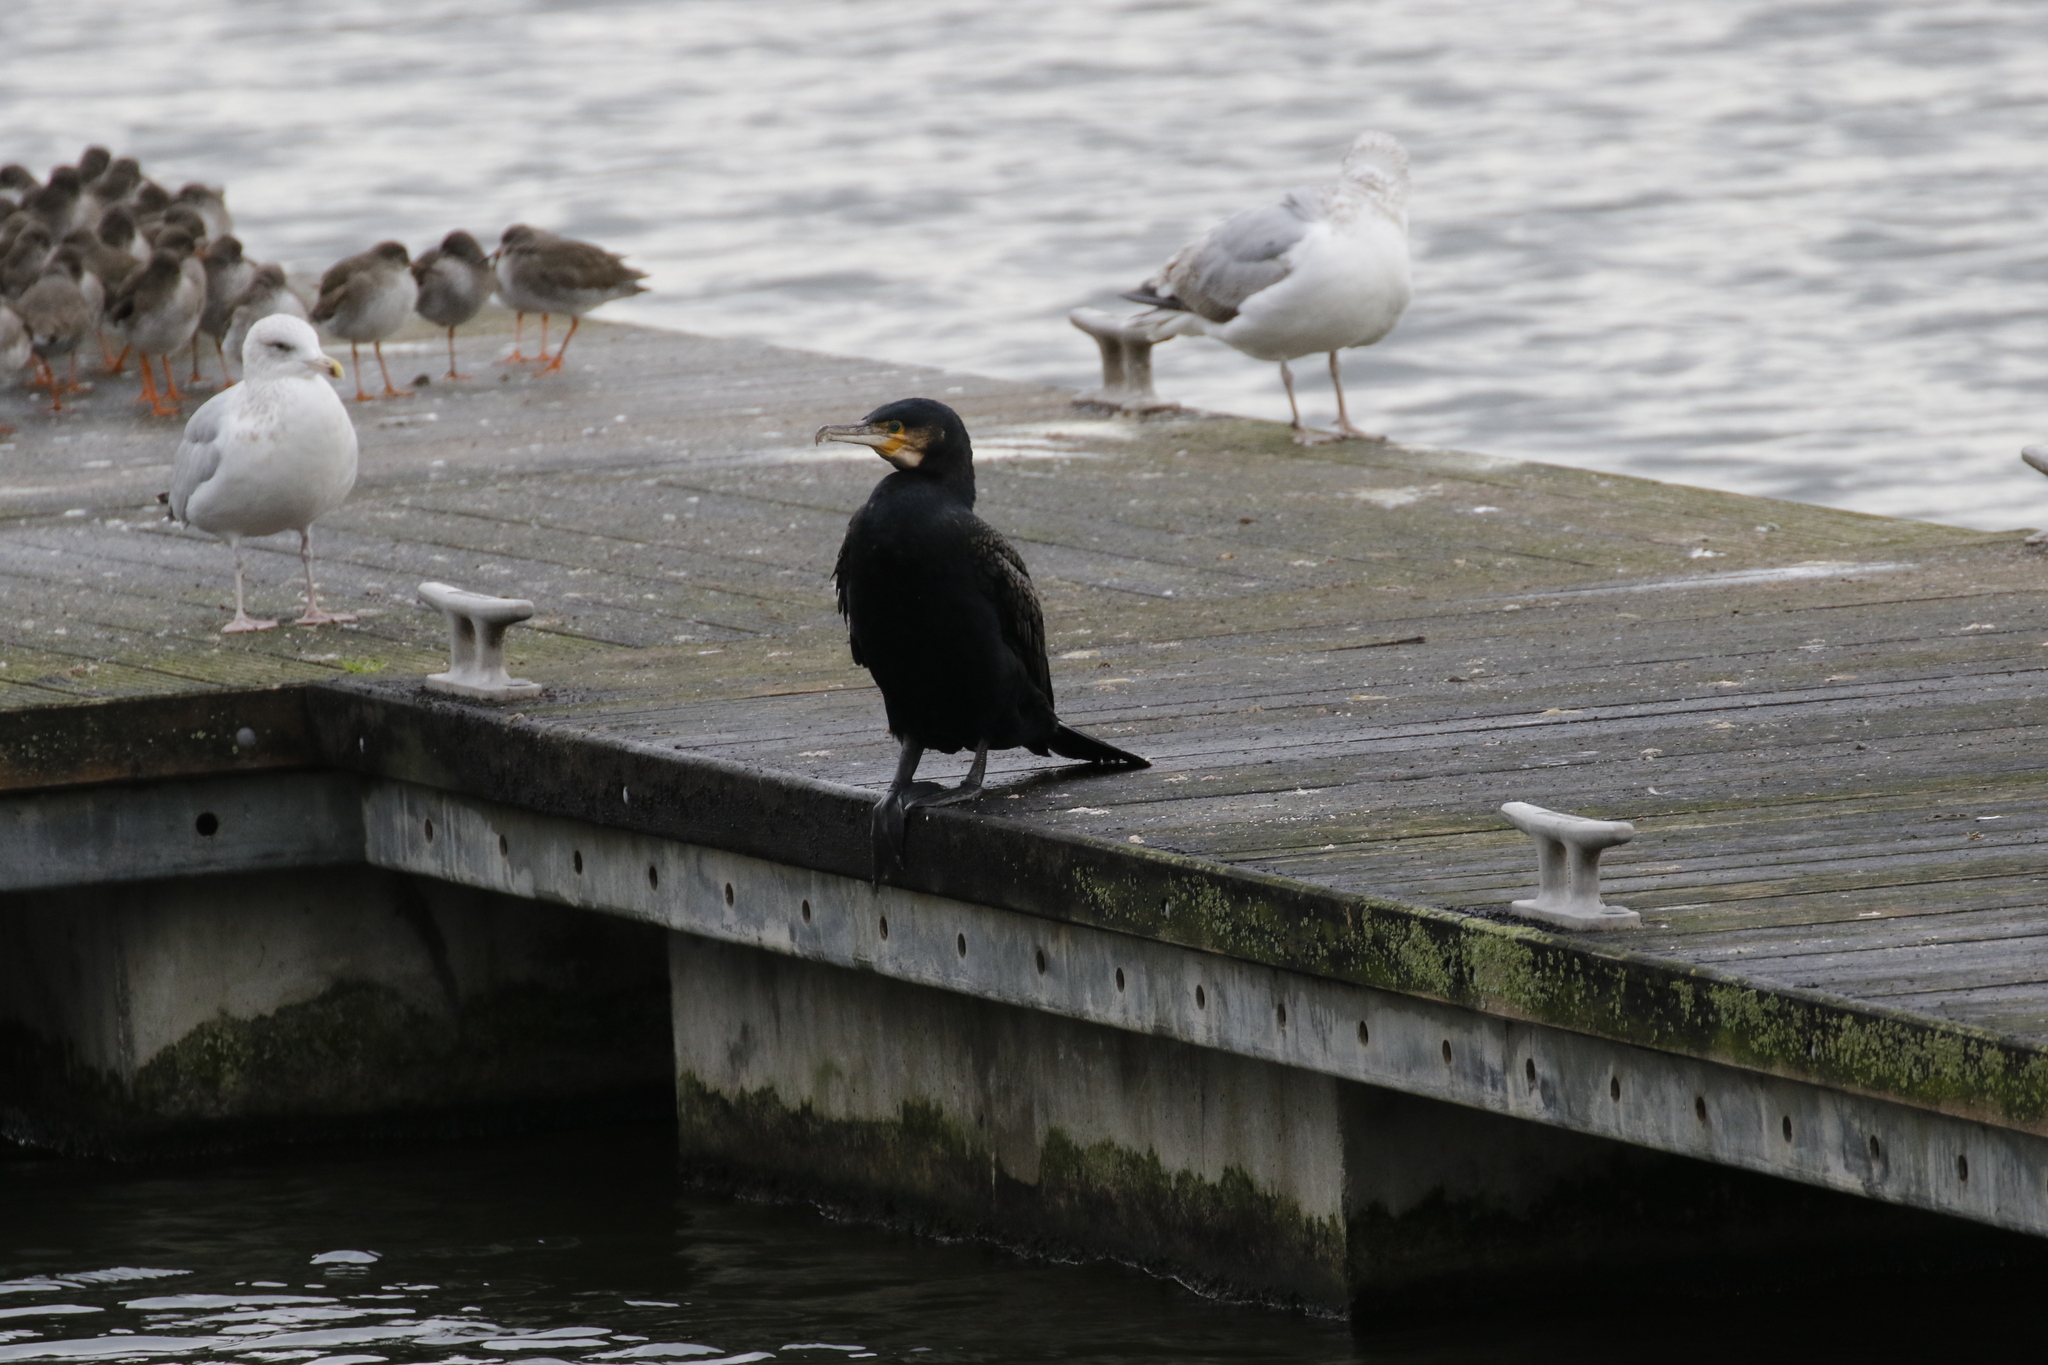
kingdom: Animalia
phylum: Chordata
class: Aves
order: Suliformes
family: Phalacrocoracidae
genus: Phalacrocorax
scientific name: Phalacrocorax carbo
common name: Great cormorant
